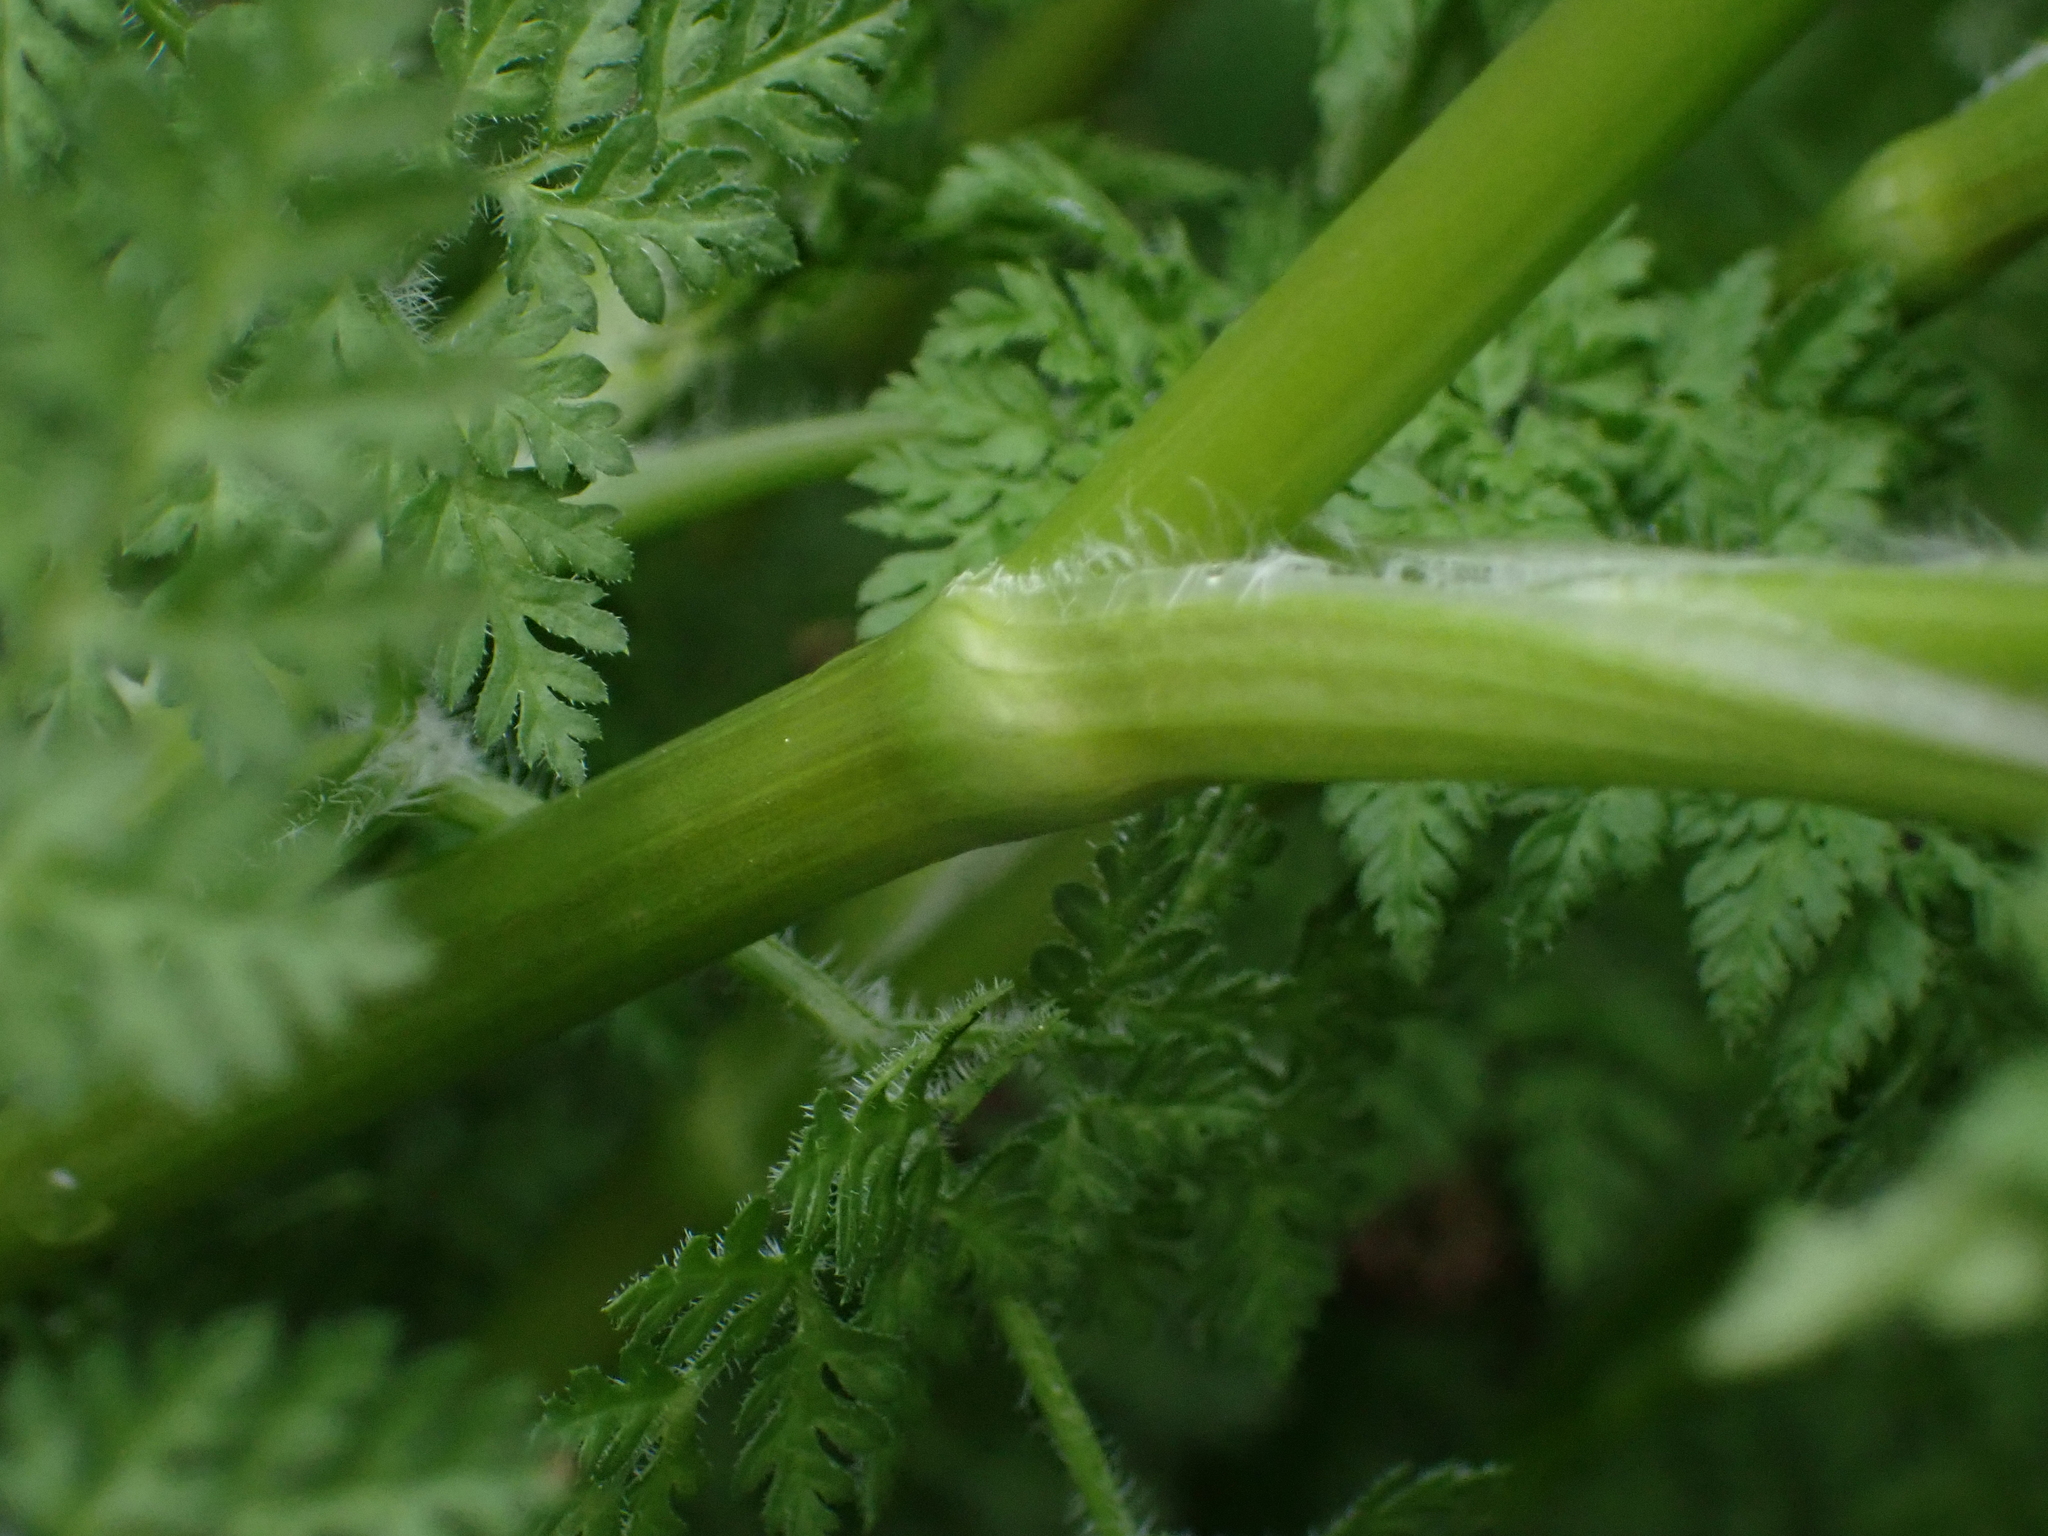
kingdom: Plantae
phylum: Tracheophyta
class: Magnoliopsida
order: Apiales
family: Apiaceae
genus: Anthriscus
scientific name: Anthriscus sylvestris
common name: Cow parsley
